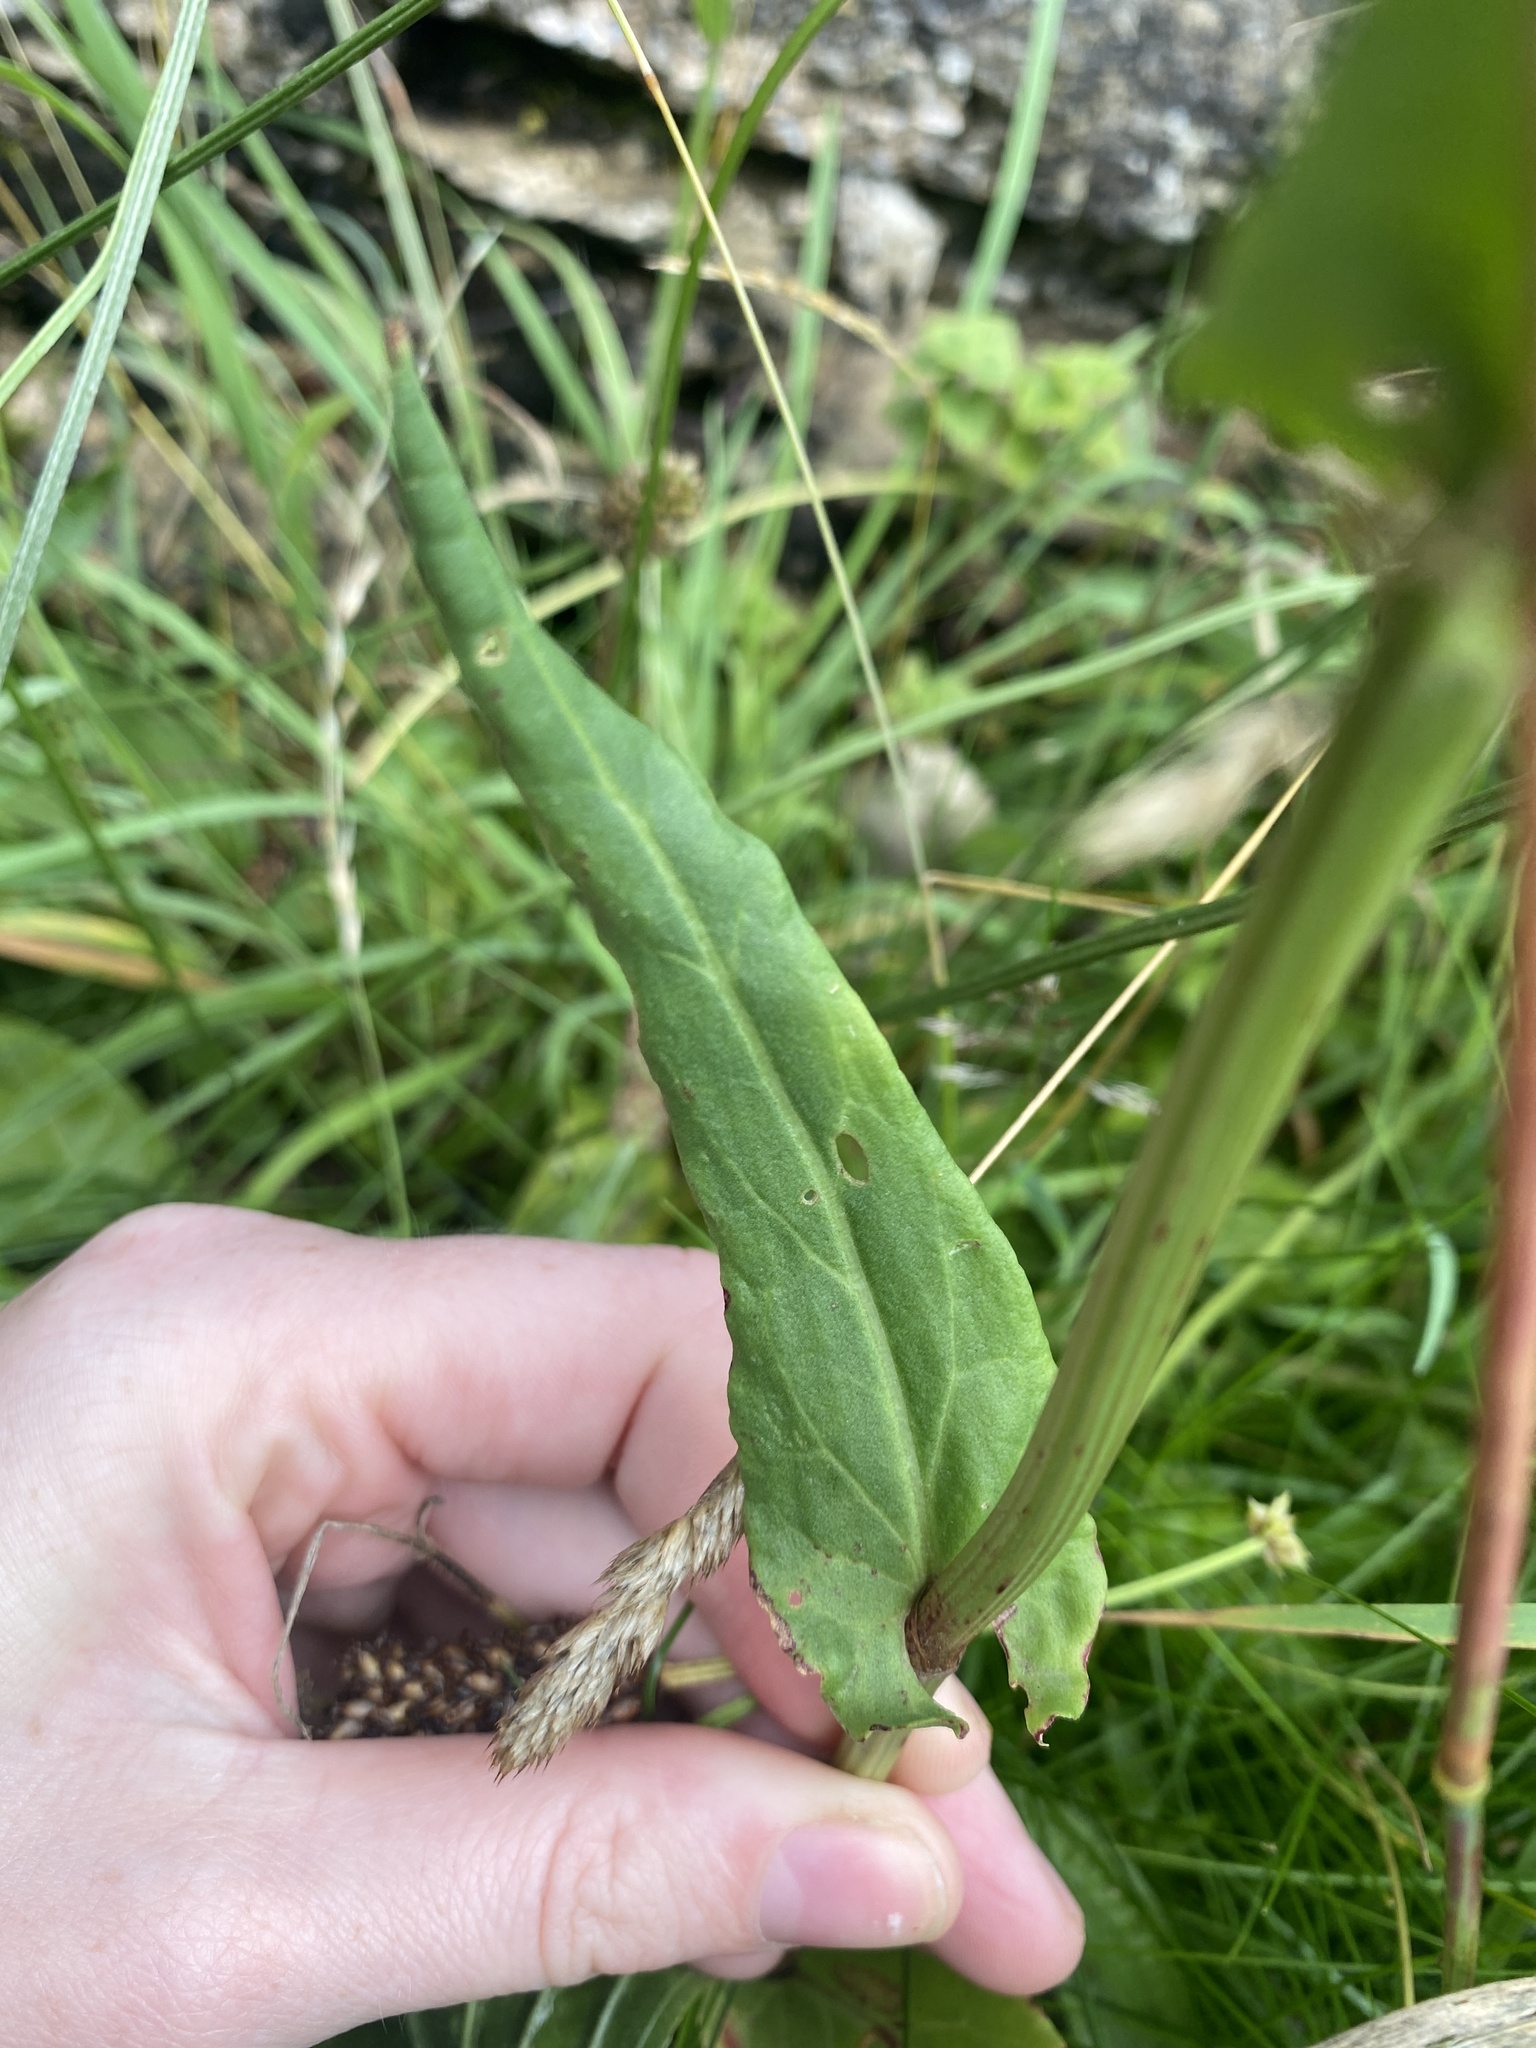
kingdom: Plantae
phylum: Tracheophyta
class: Magnoliopsida
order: Caryophyllales
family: Polygonaceae
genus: Rumex
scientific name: Rumex acetosa
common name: Garden sorrel
